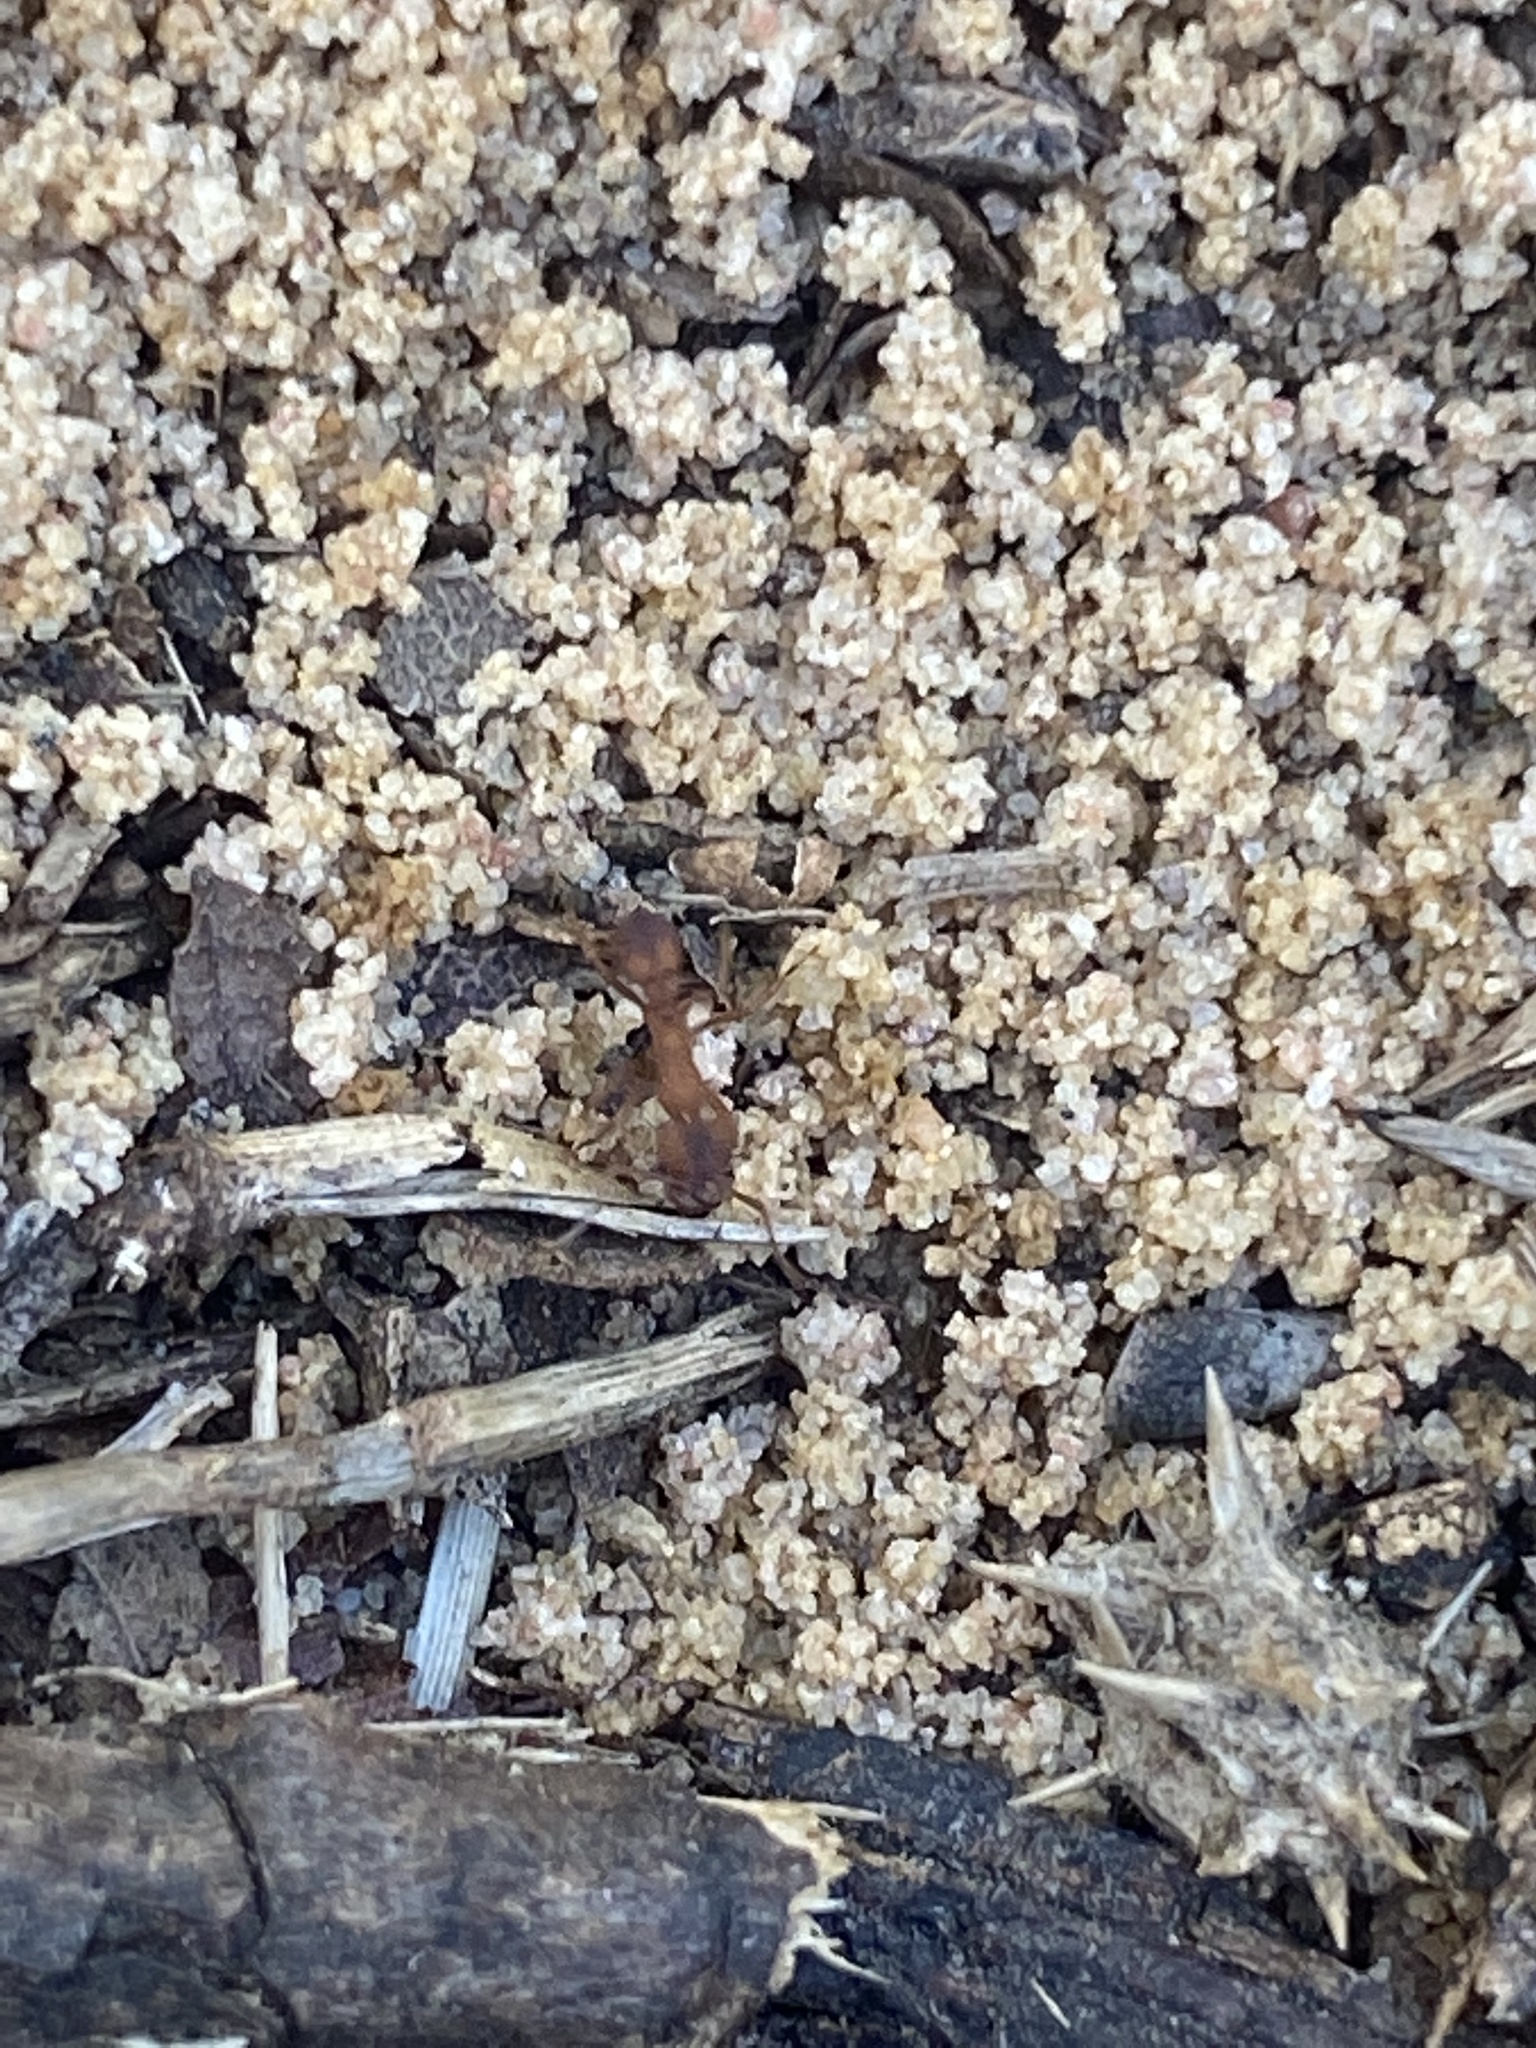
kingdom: Animalia
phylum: Arthropoda
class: Insecta
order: Hymenoptera
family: Formicidae
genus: Trachymyrmex
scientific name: Trachymyrmex septentrionalis
